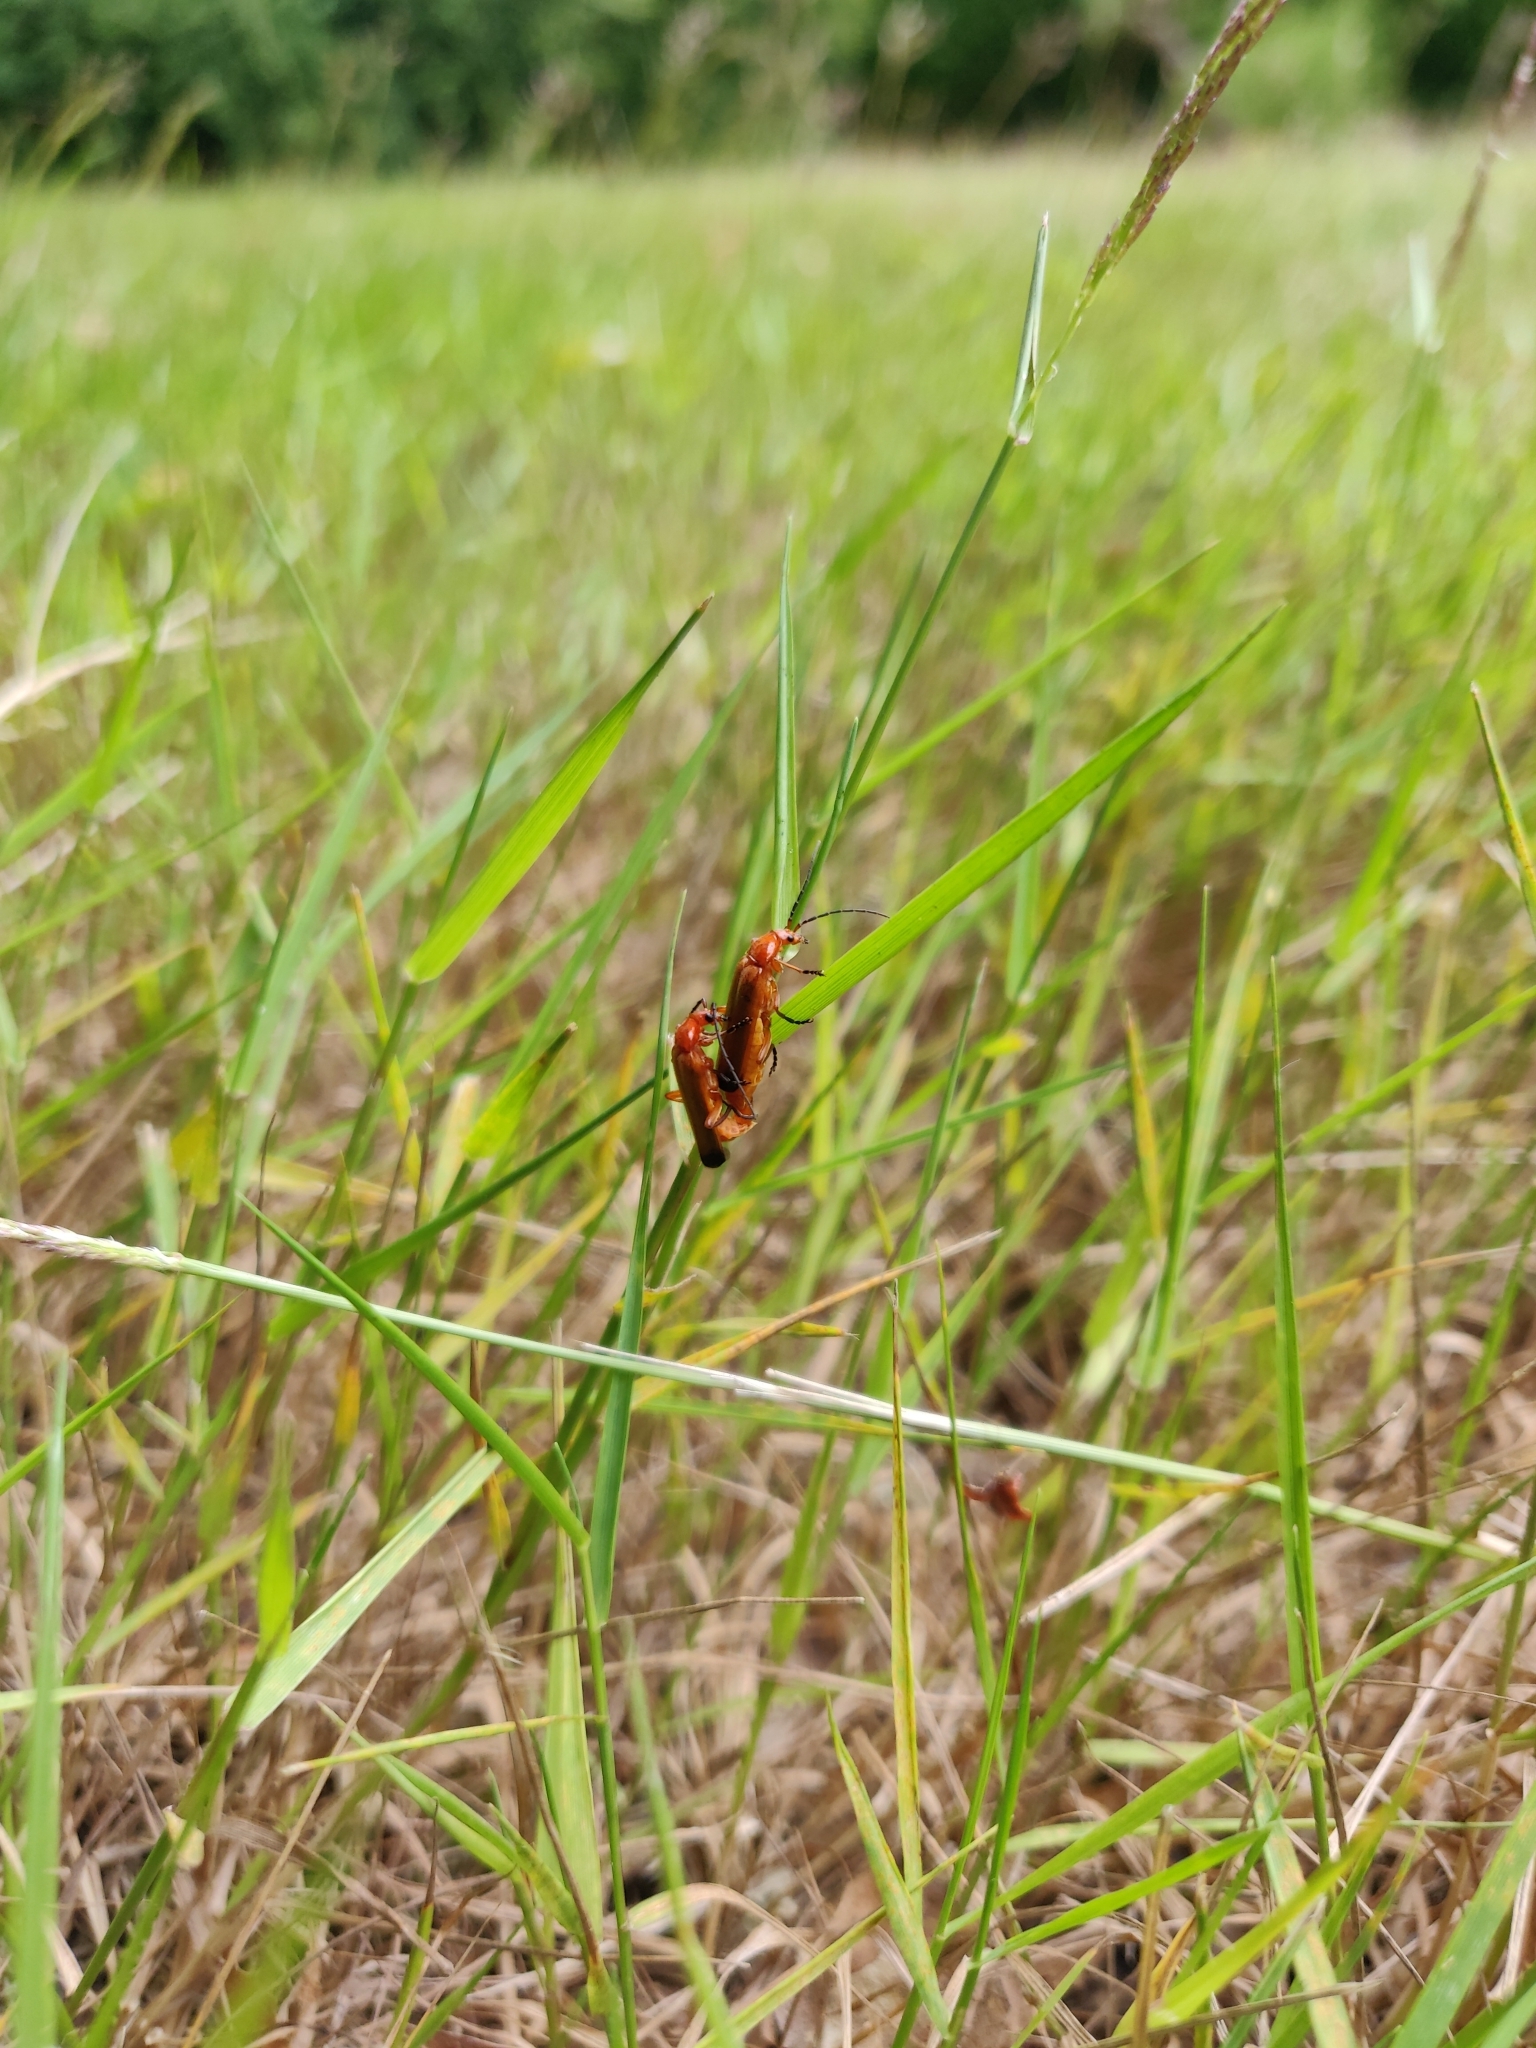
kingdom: Animalia
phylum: Arthropoda
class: Insecta
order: Coleoptera
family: Cantharidae
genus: Rhagonycha
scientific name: Rhagonycha fulva
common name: Common red soldier beetle
